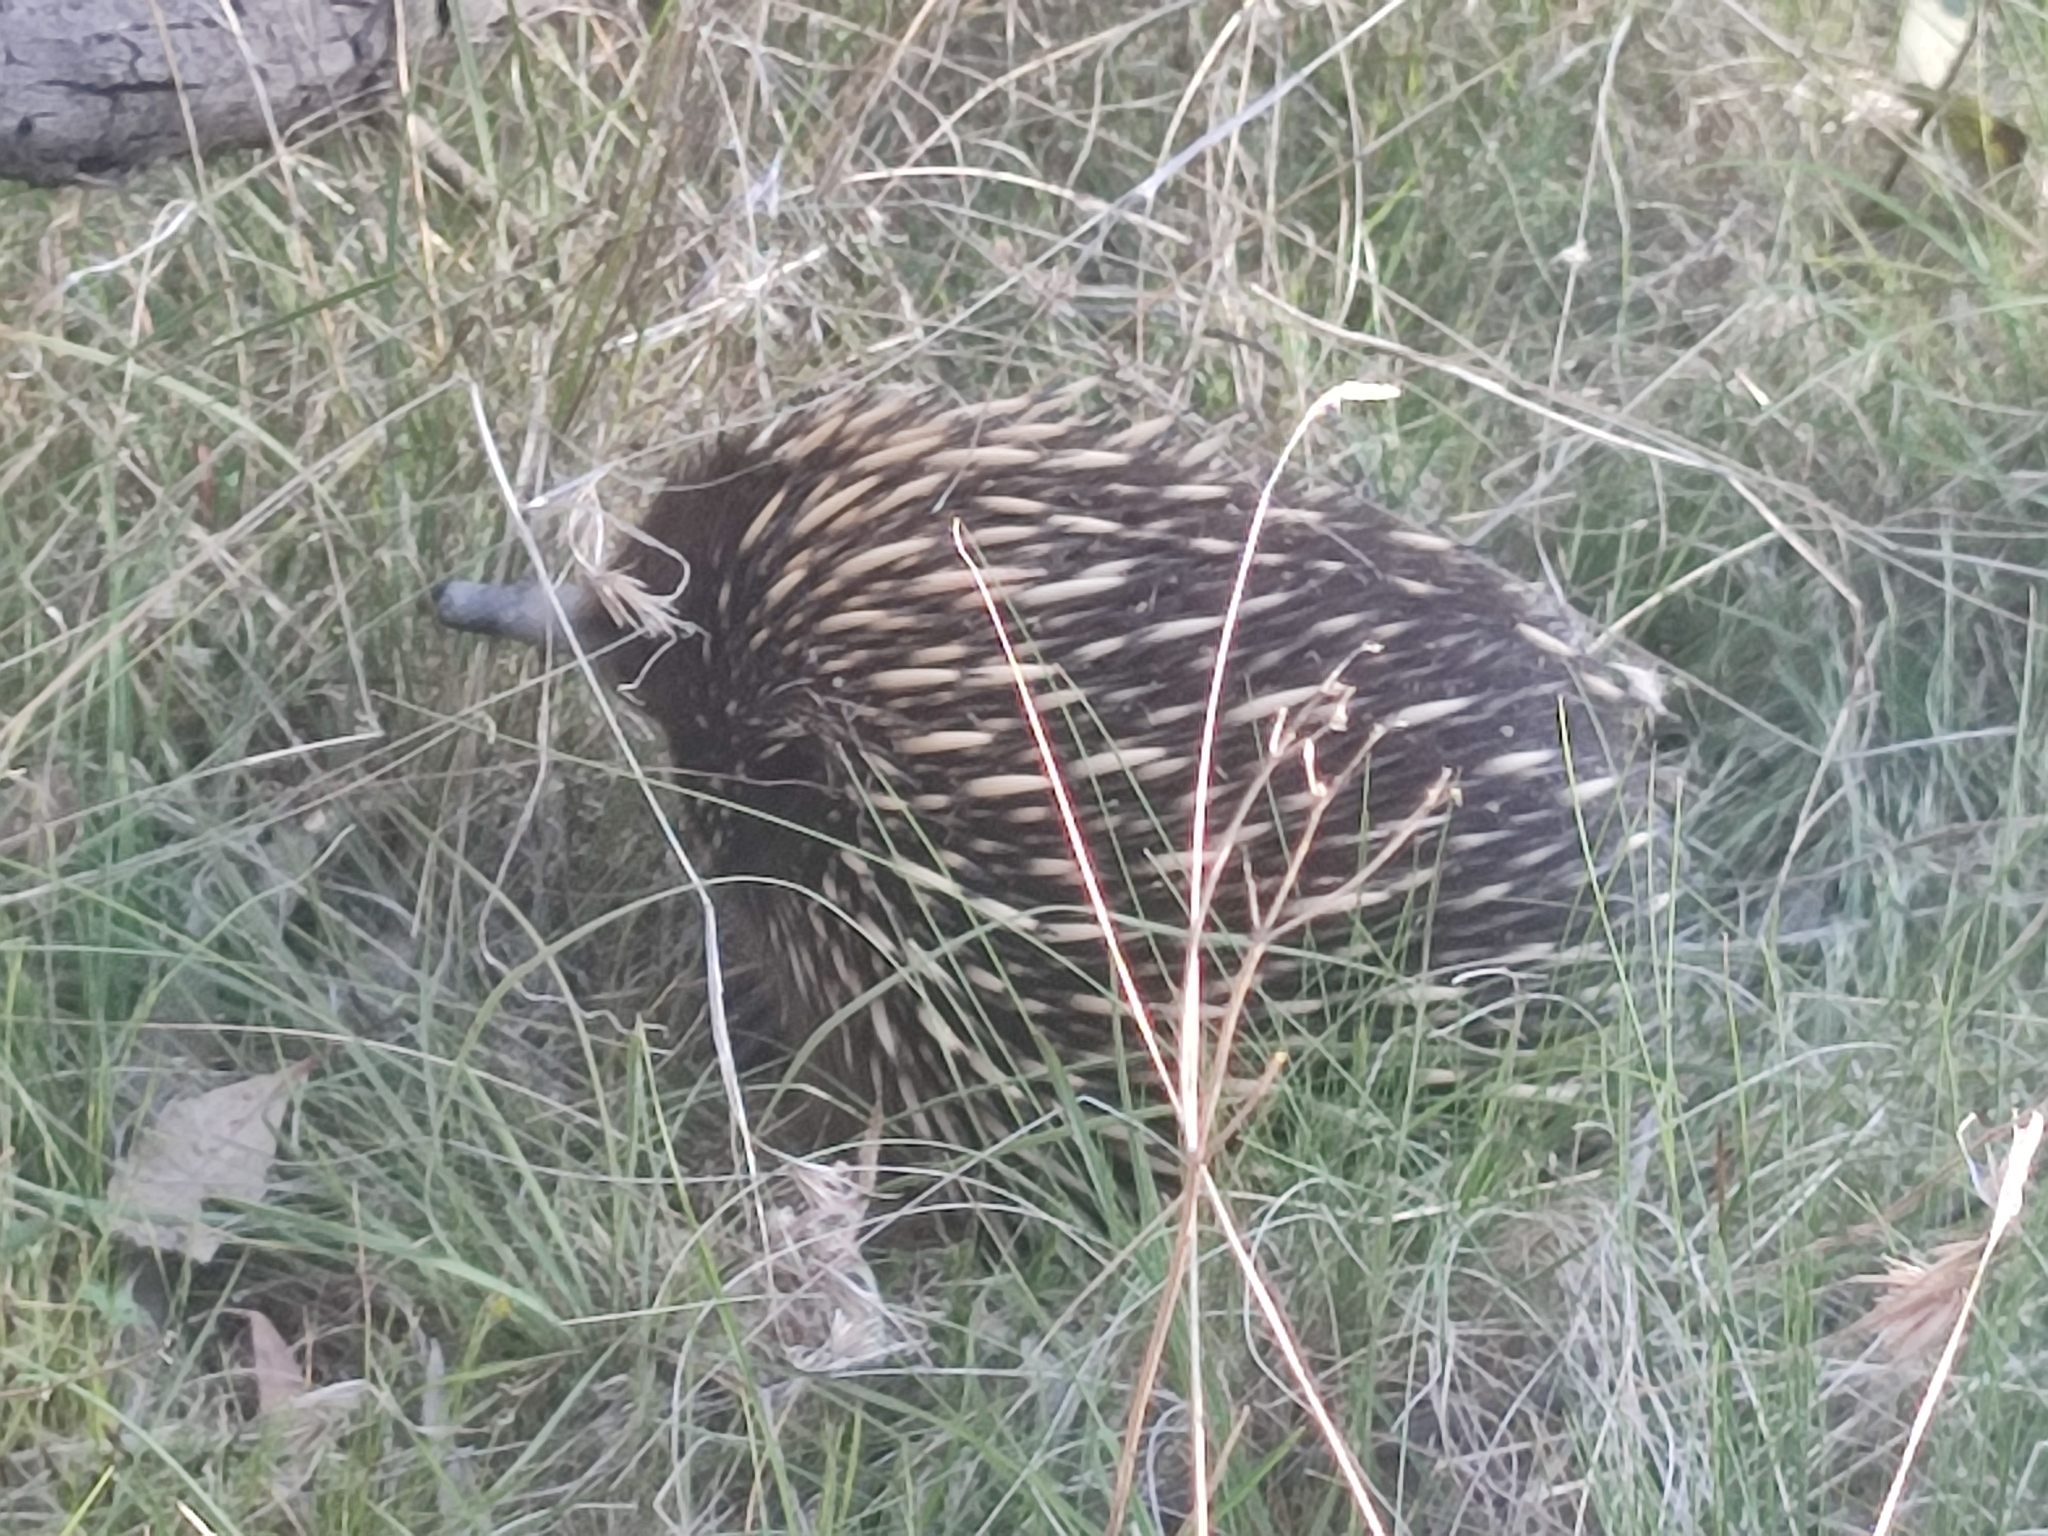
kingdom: Animalia
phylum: Chordata
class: Mammalia
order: Monotremata
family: Tachyglossidae
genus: Tachyglossus
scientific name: Tachyglossus aculeatus
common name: Short-beaked echidna
